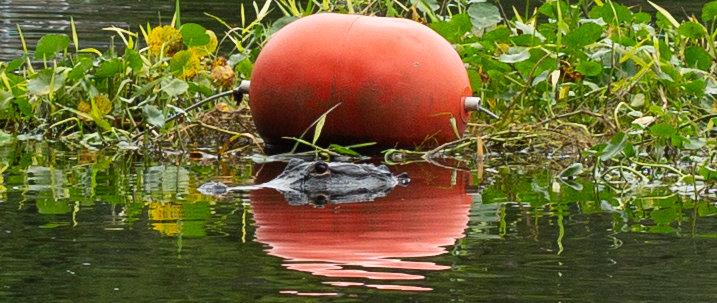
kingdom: Animalia
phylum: Chordata
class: Crocodylia
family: Alligatoridae
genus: Alligator
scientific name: Alligator mississippiensis
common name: American alligator
